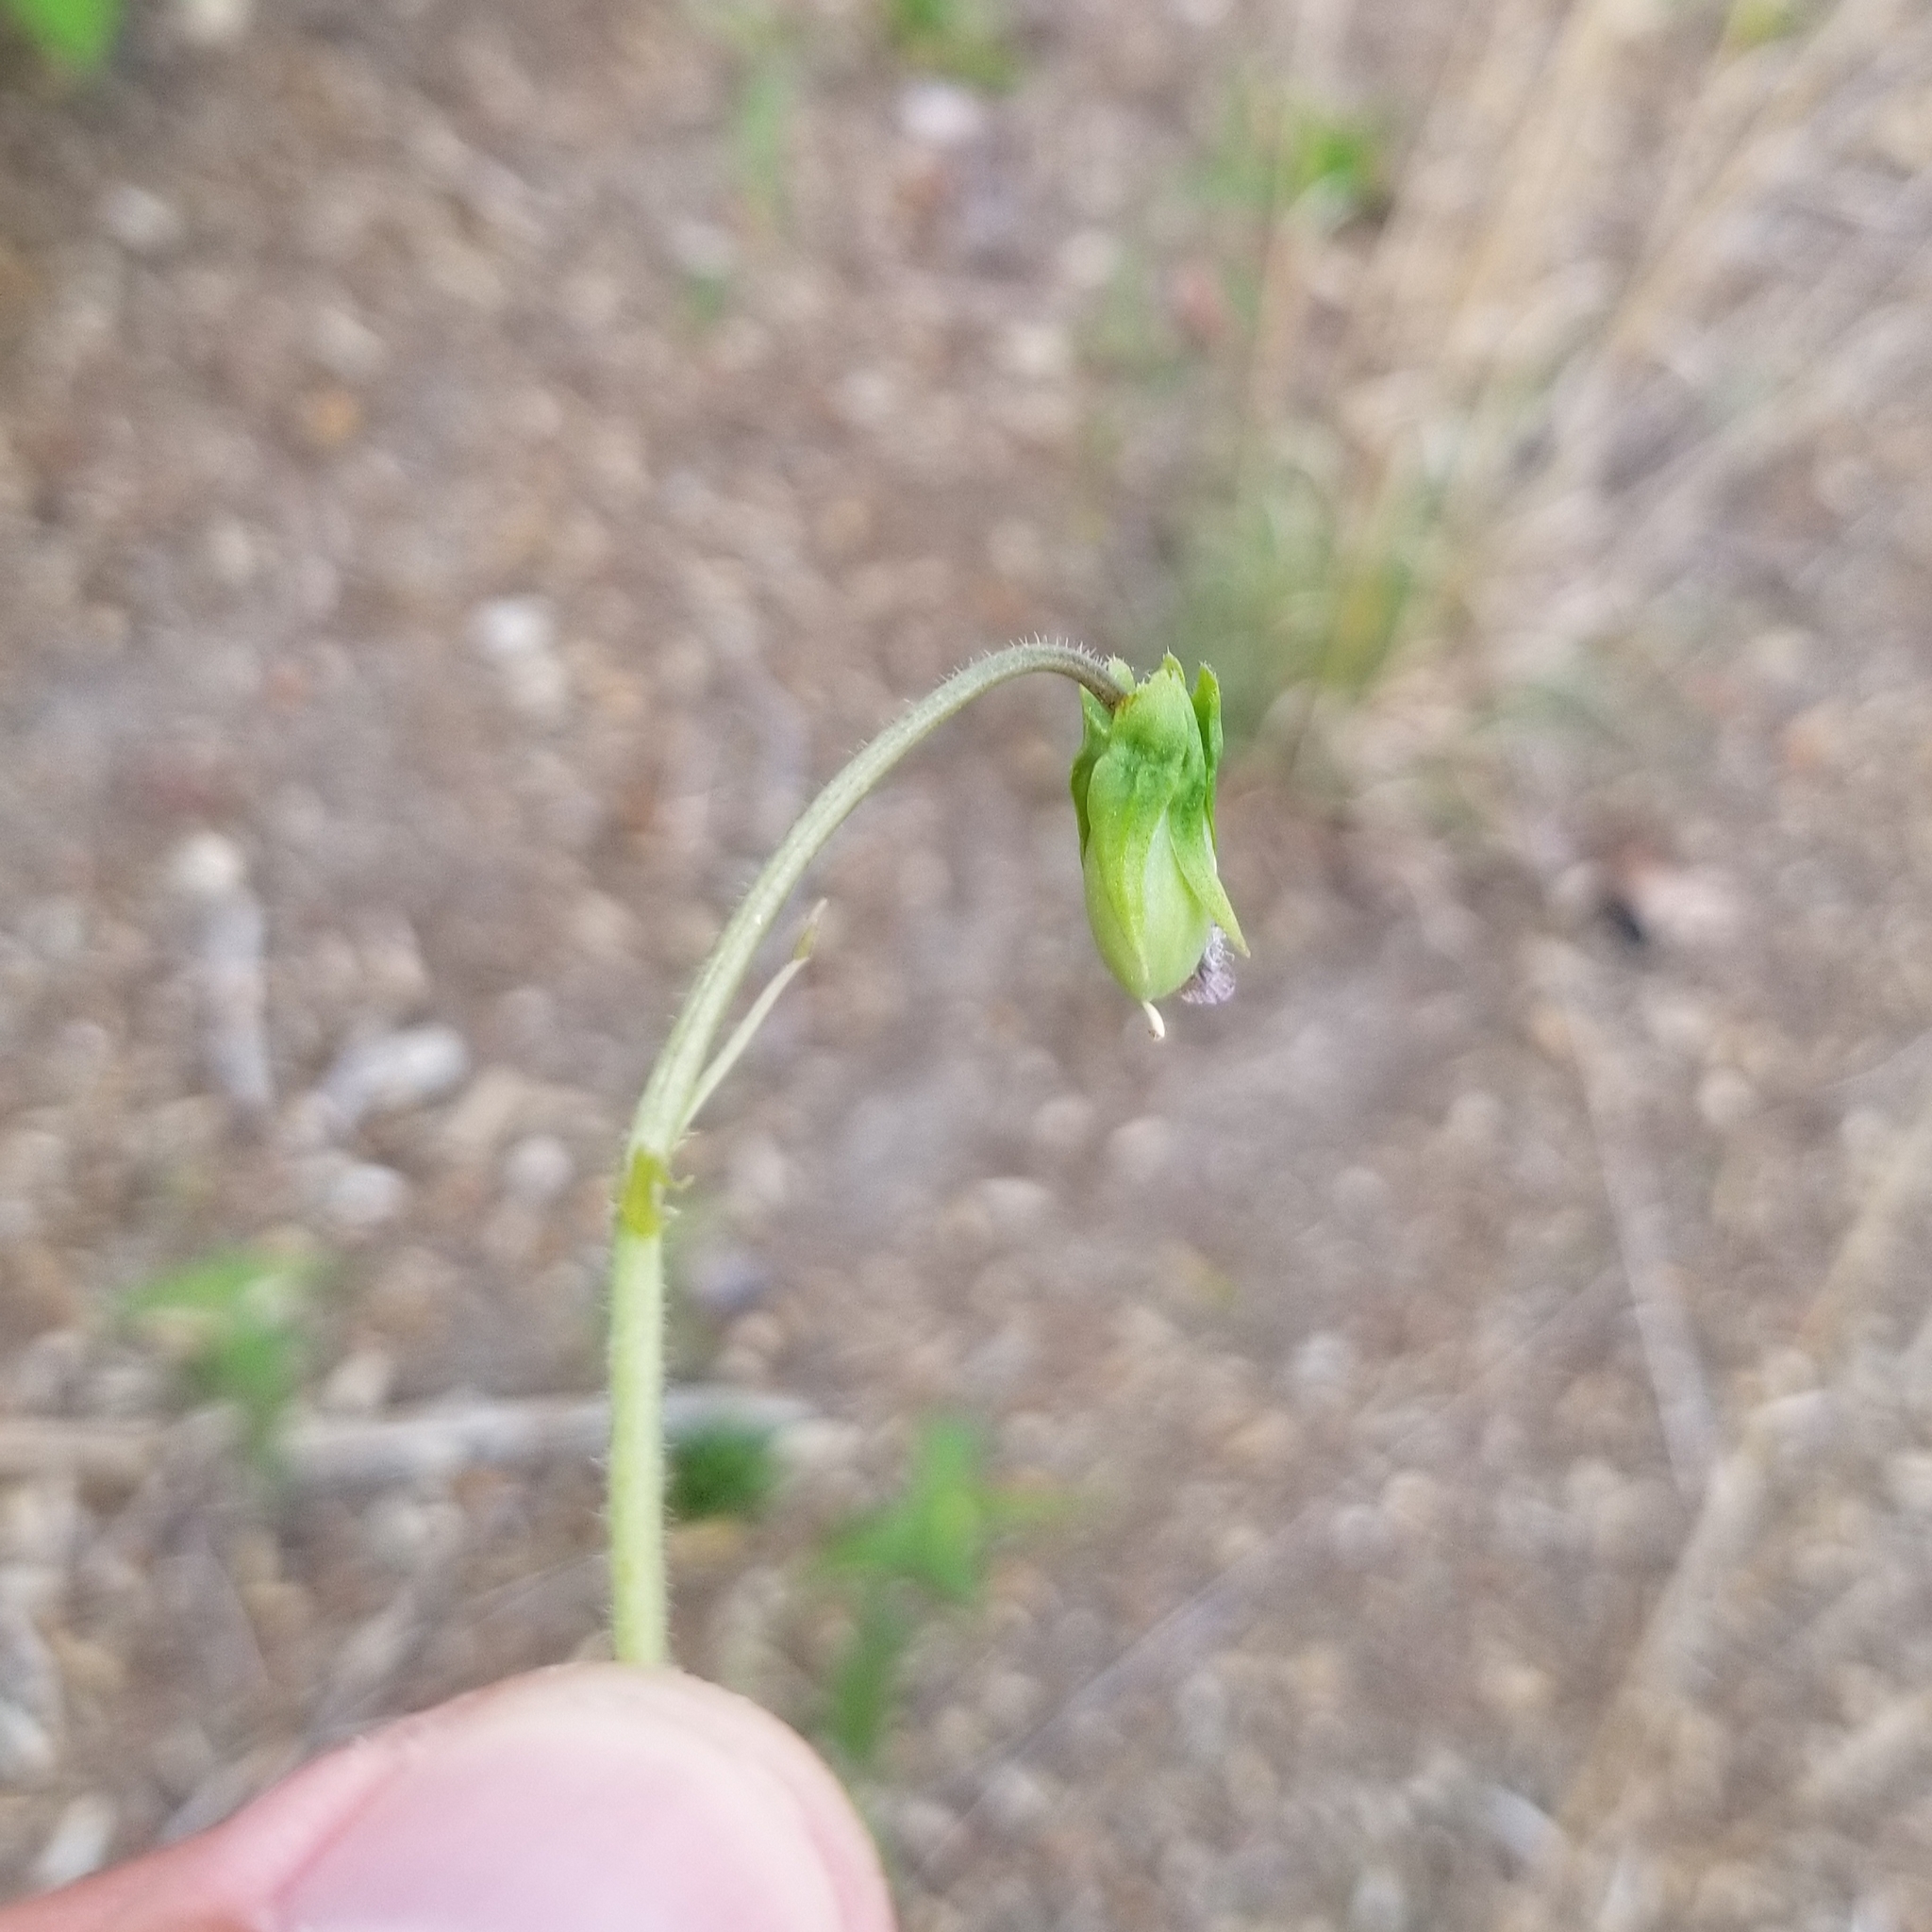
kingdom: Plantae
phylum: Tracheophyta
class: Magnoliopsida
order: Malpighiales
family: Violaceae
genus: Viola
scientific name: Viola fimbriatula
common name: Sand violet
